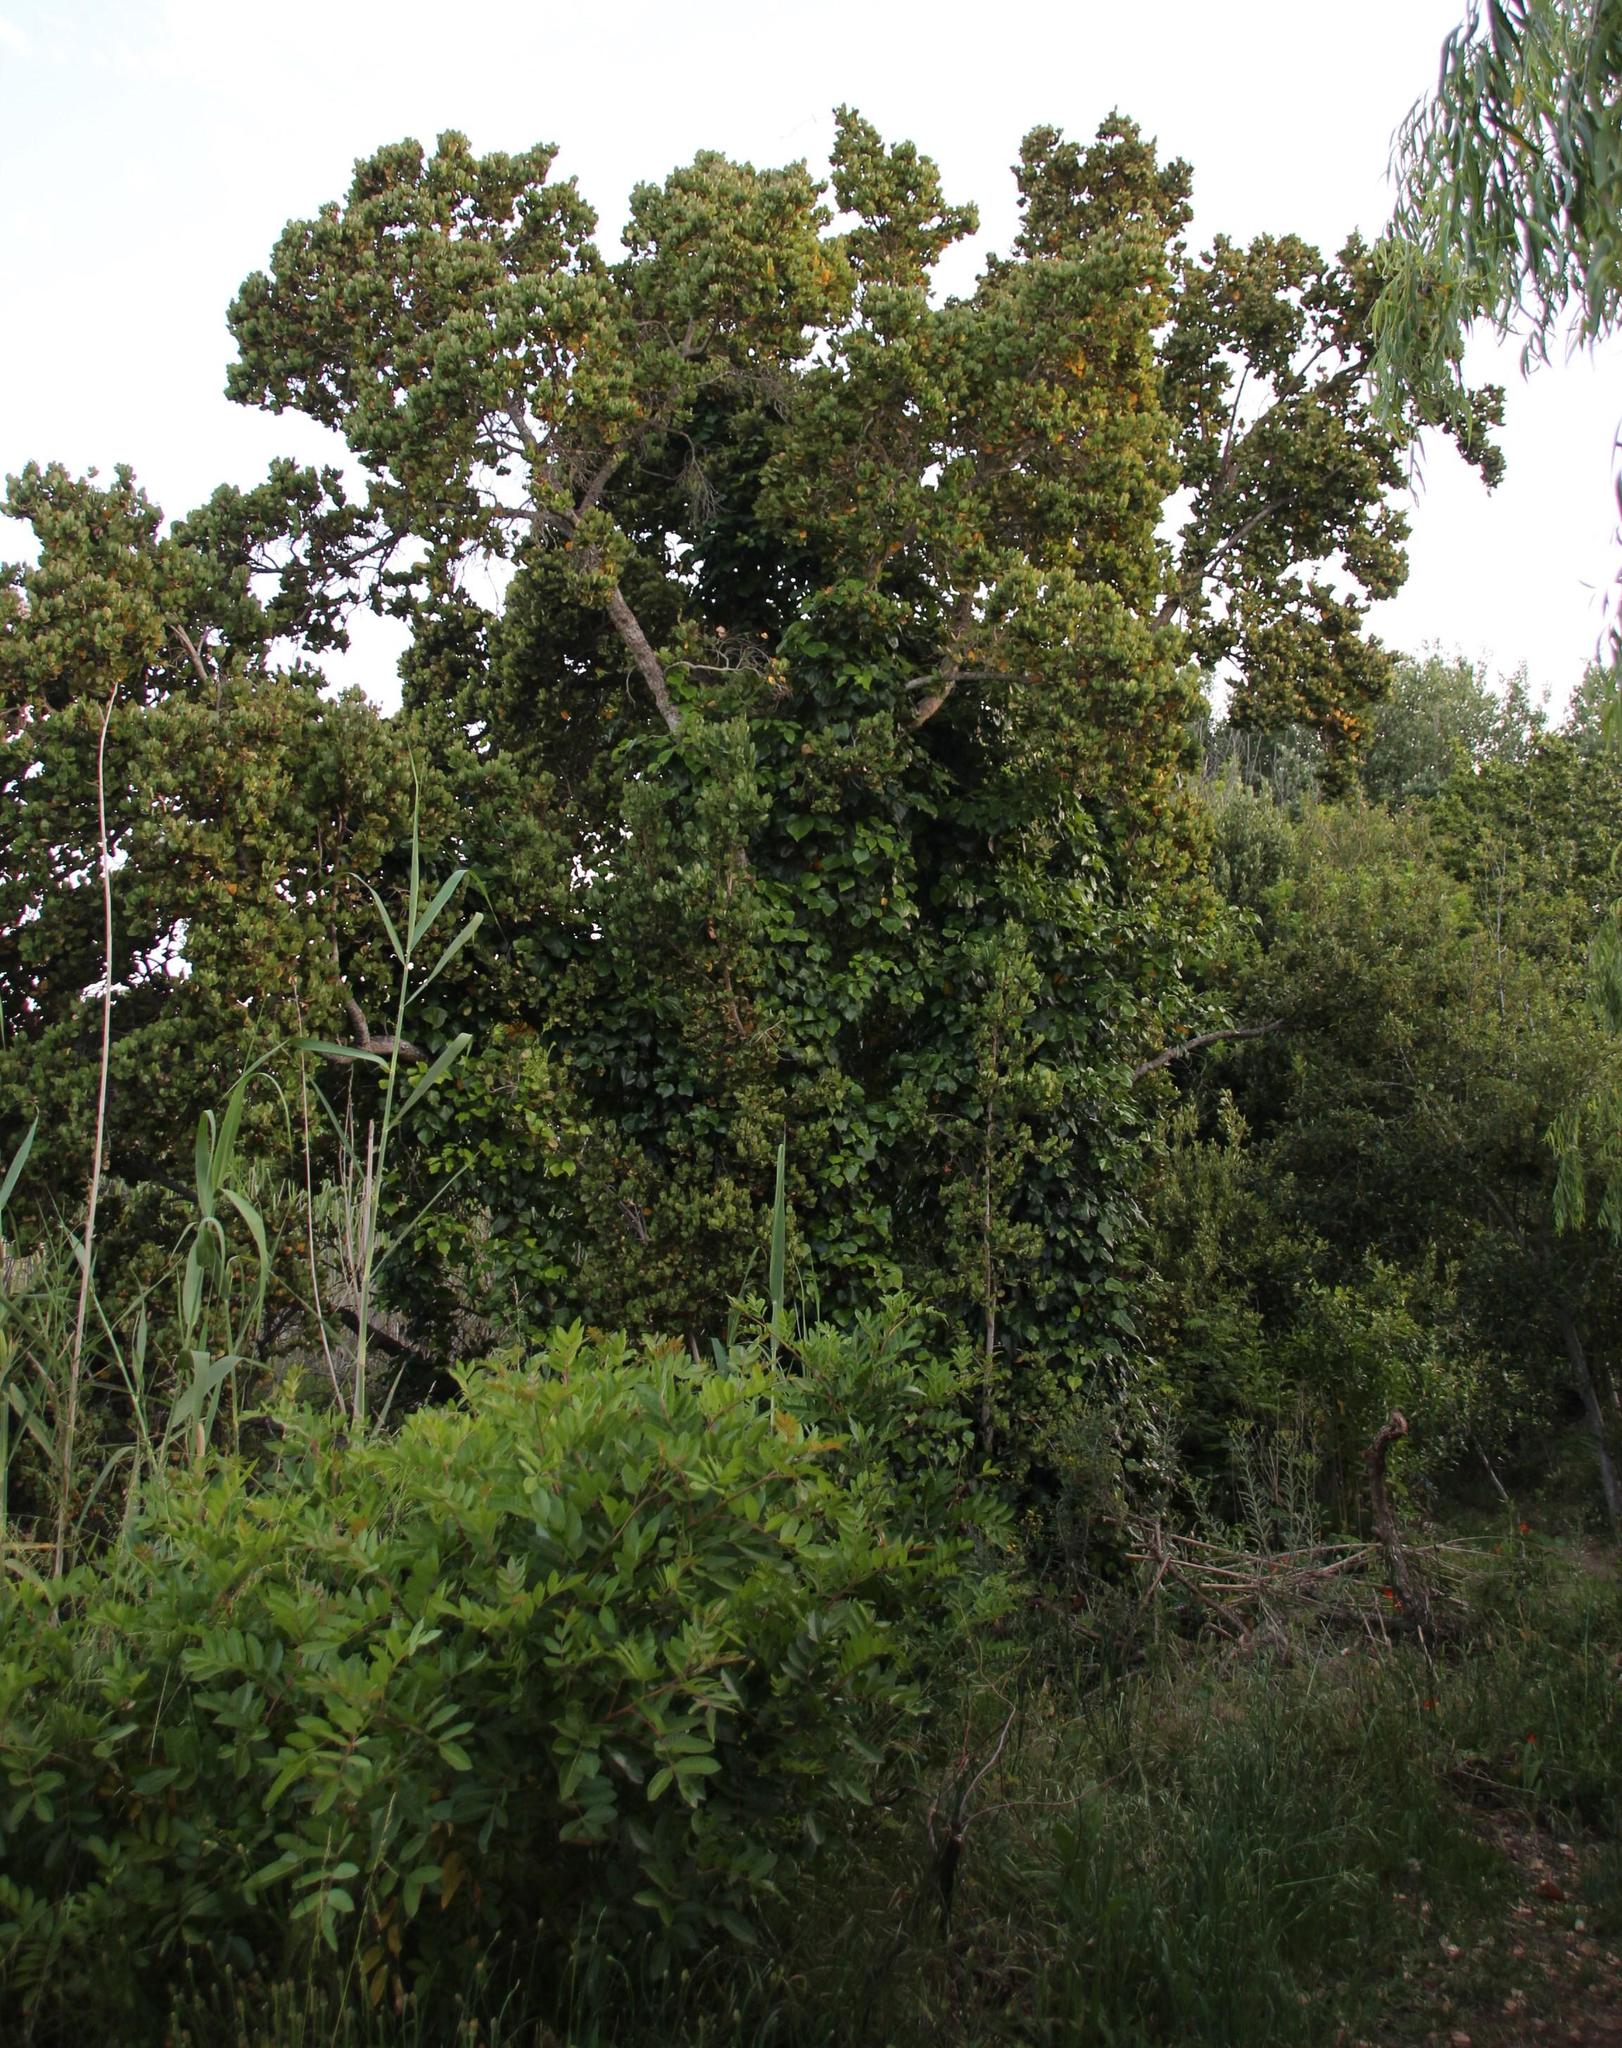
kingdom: Plantae
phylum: Tracheophyta
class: Magnoliopsida
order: Myrtales
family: Myrtaceae
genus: Syzygium
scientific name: Syzygium cordatum
